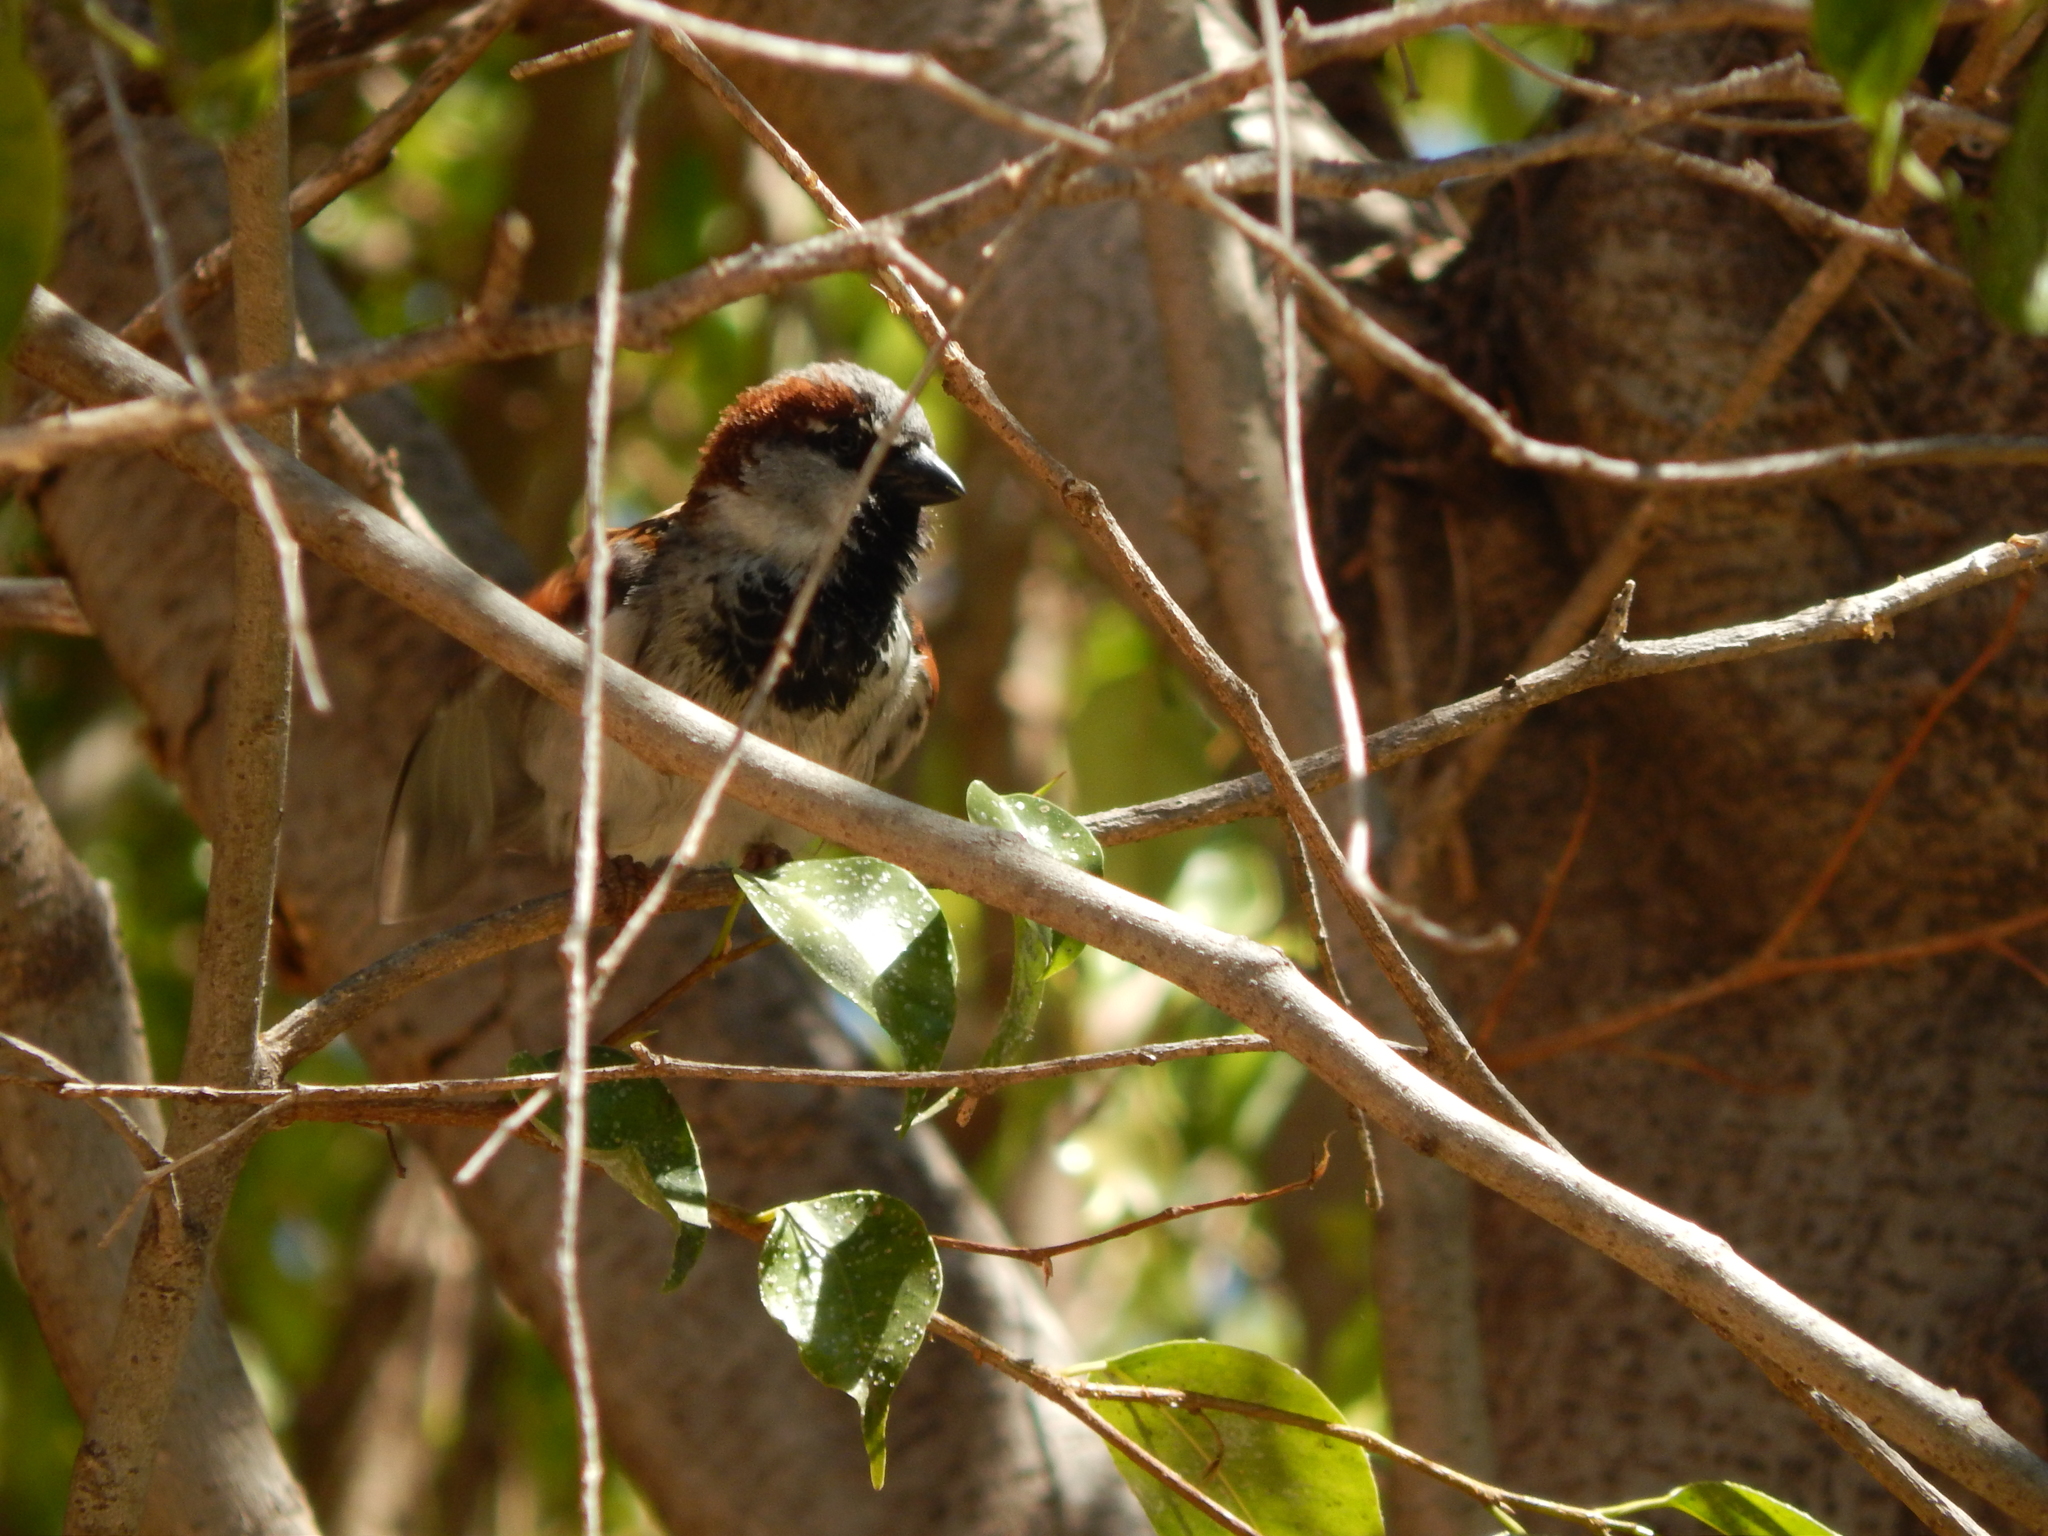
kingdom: Animalia
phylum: Chordata
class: Aves
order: Passeriformes
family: Passeridae
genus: Passer
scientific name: Passer domesticus
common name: House sparrow
